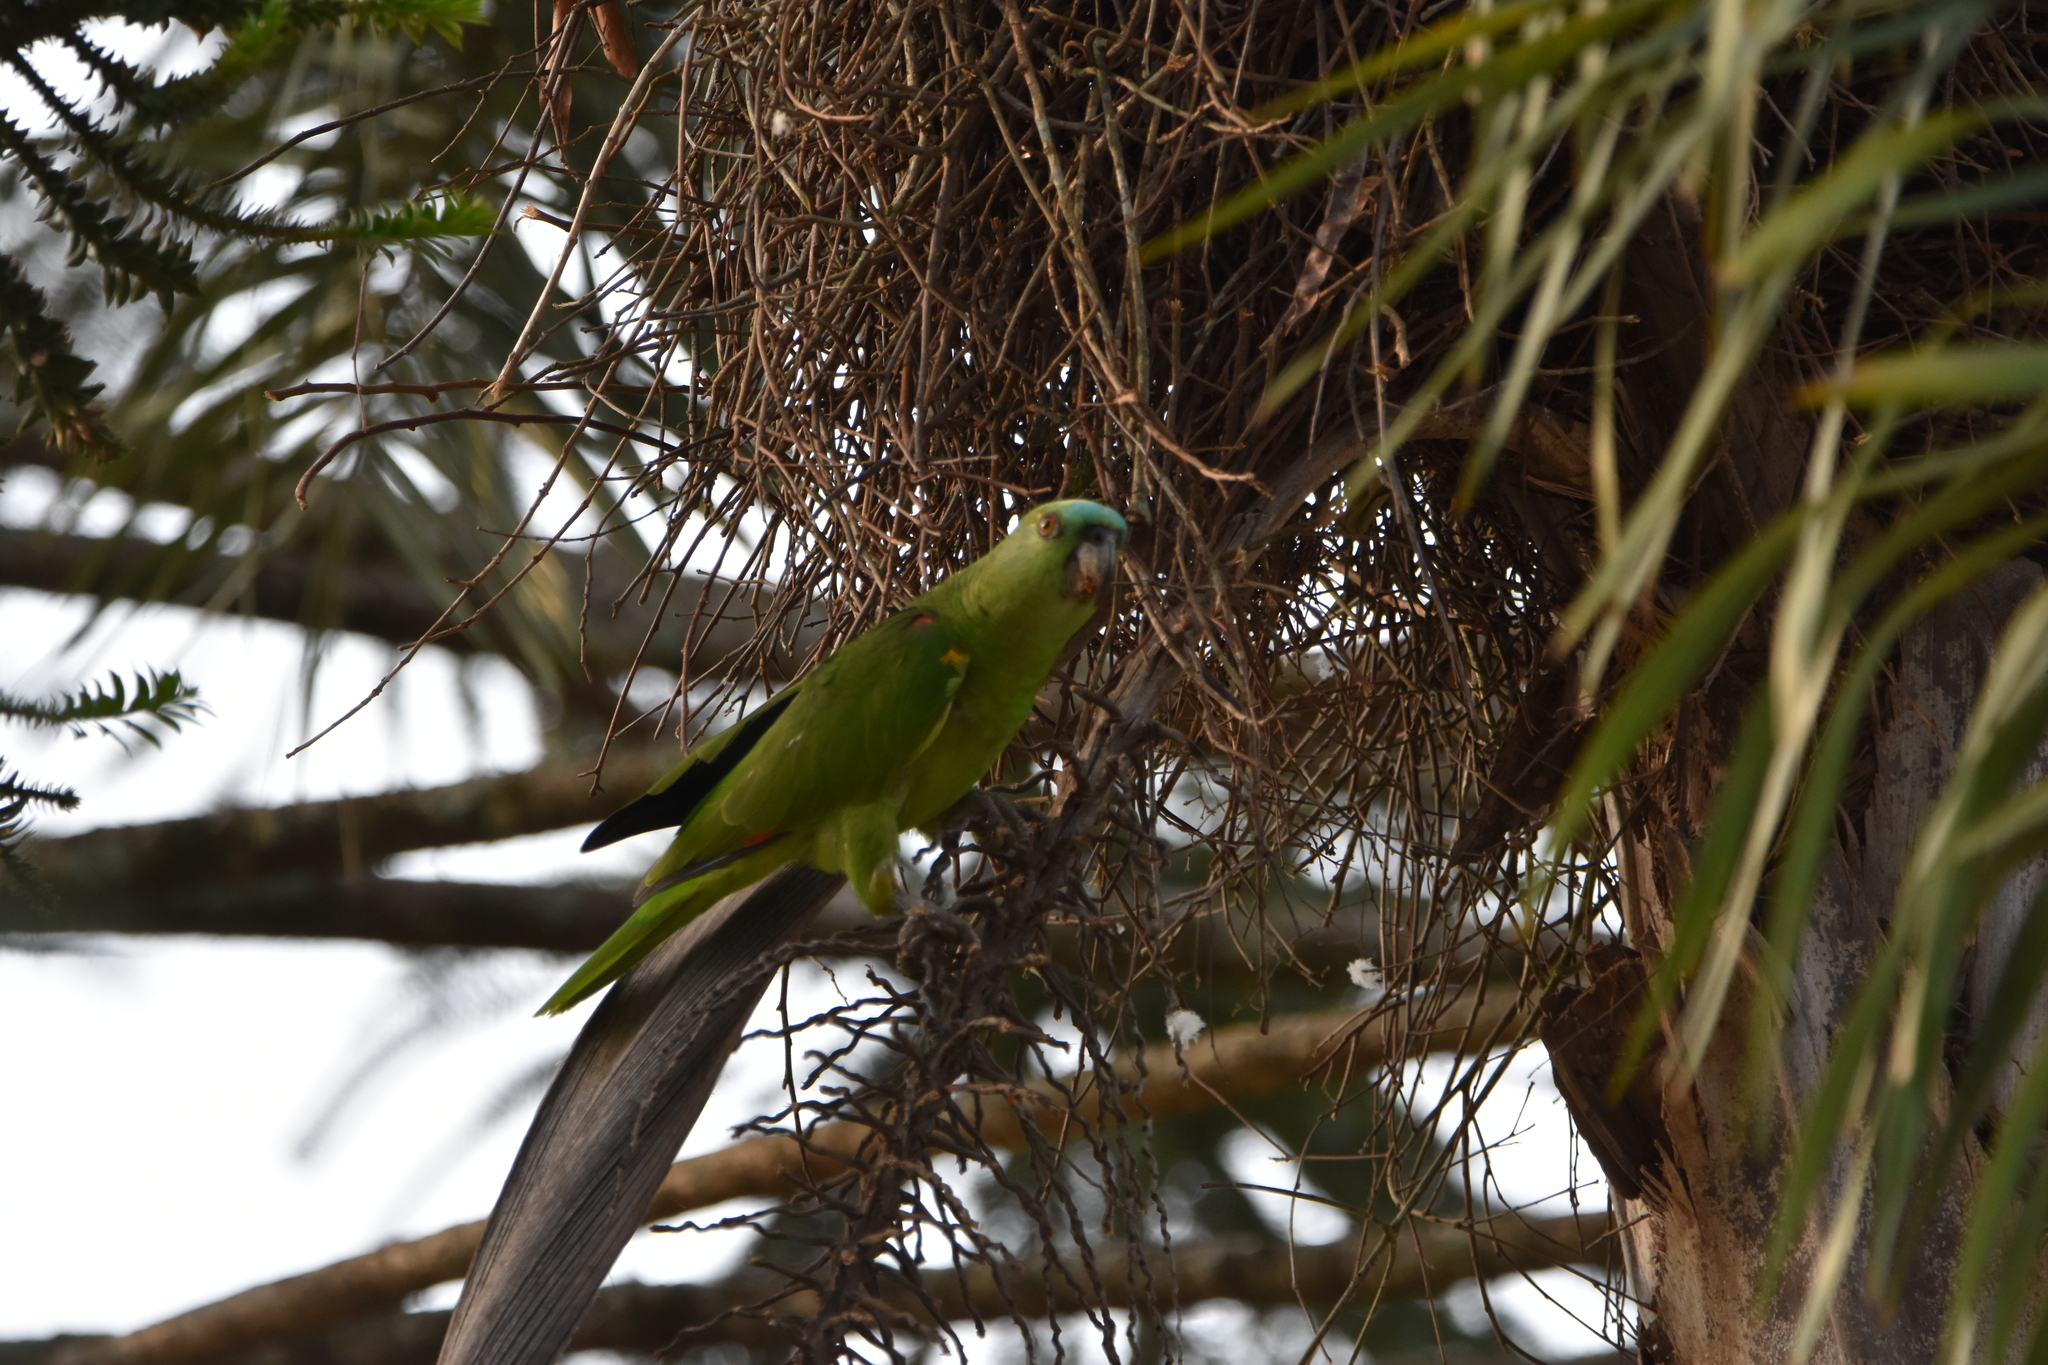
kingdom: Animalia
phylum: Chordata
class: Aves
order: Psittaciformes
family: Psittacidae
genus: Amazona
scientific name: Amazona aestiva
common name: Turquoise-fronted amazon
